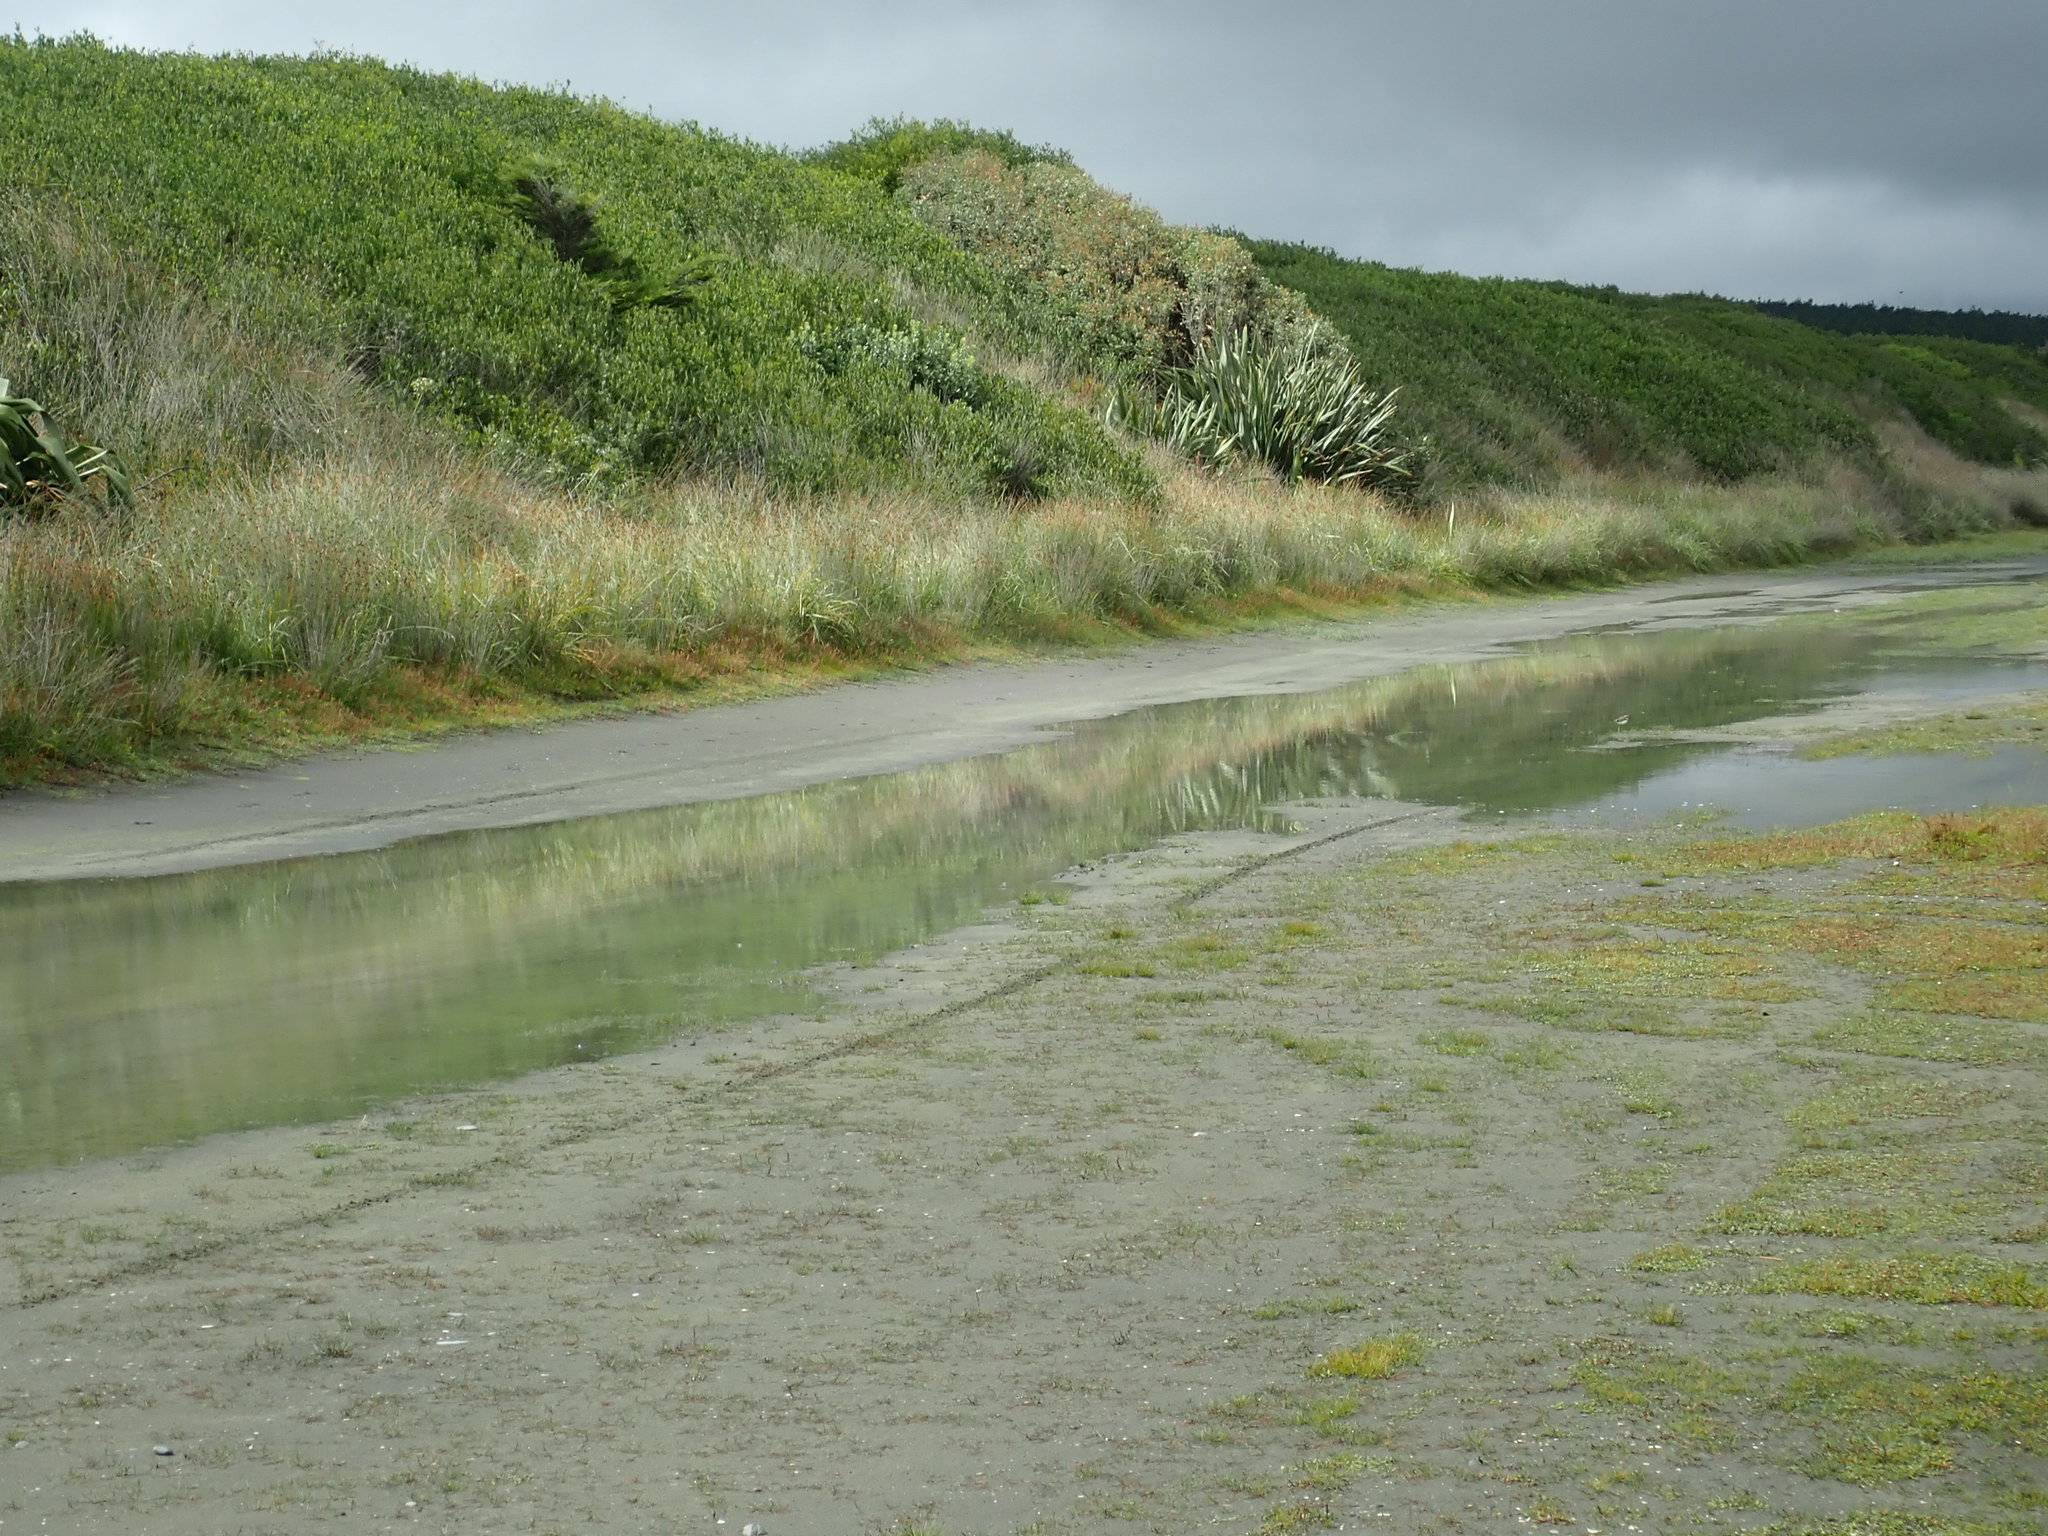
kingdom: Animalia
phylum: Chordata
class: Aves
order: Charadriiformes
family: Charadriidae
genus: Elseyornis
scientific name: Elseyornis melanops
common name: Black-fronted dotterel
